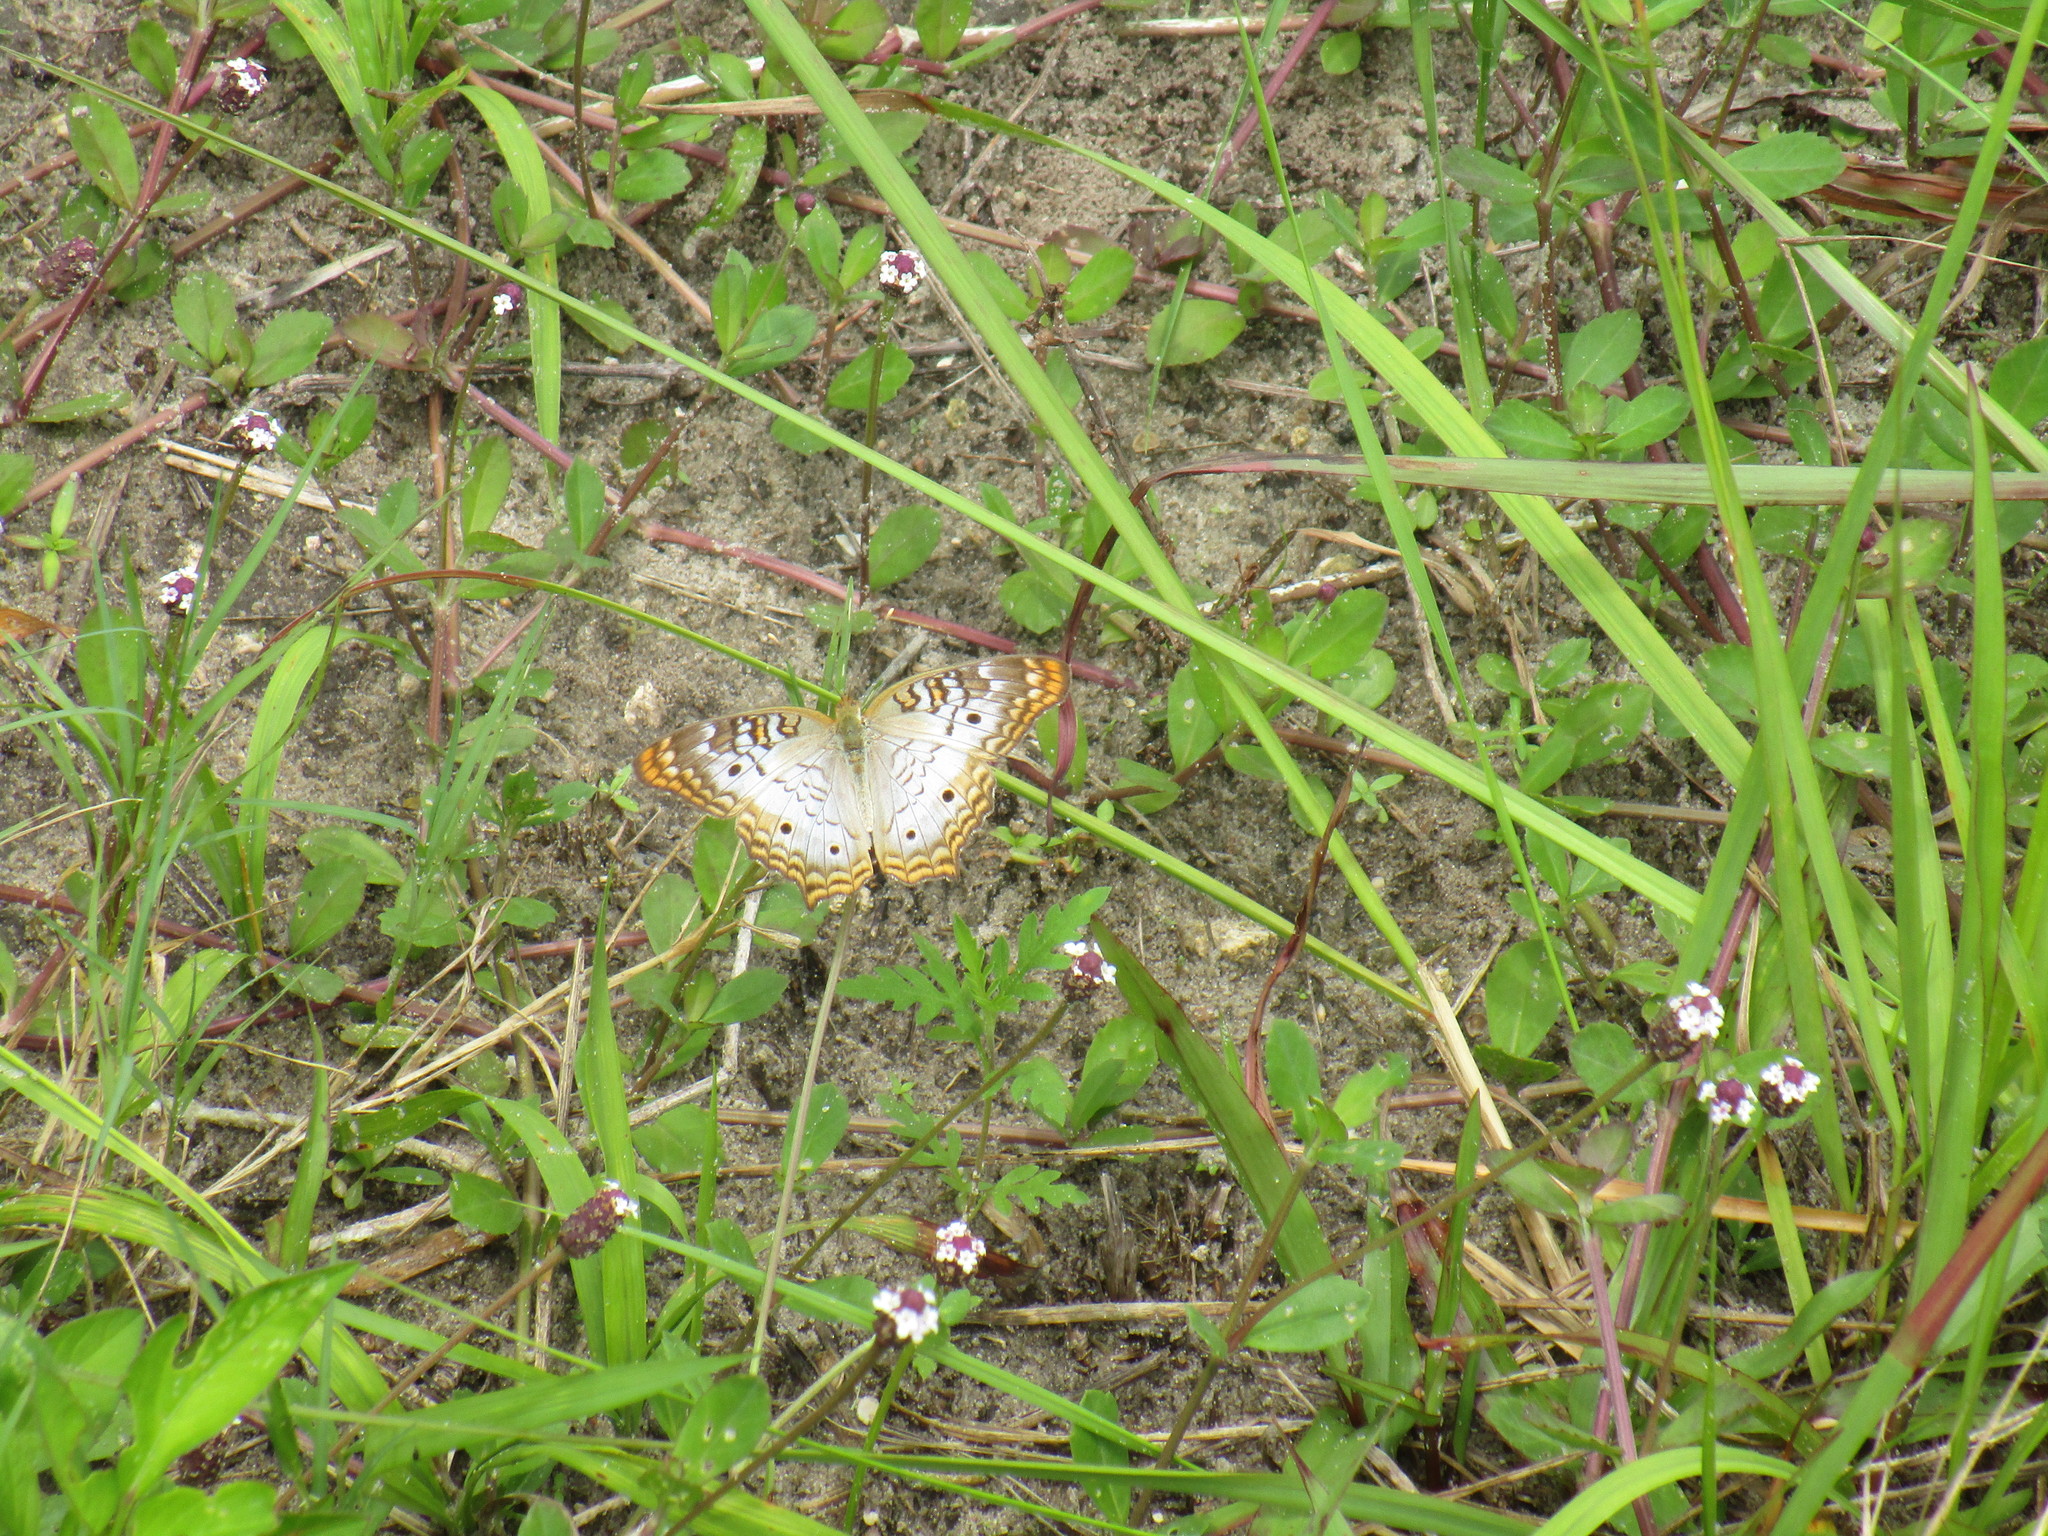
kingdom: Animalia
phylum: Arthropoda
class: Insecta
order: Lepidoptera
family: Nymphalidae
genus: Anartia
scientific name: Anartia jatrophae
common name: White peacock
